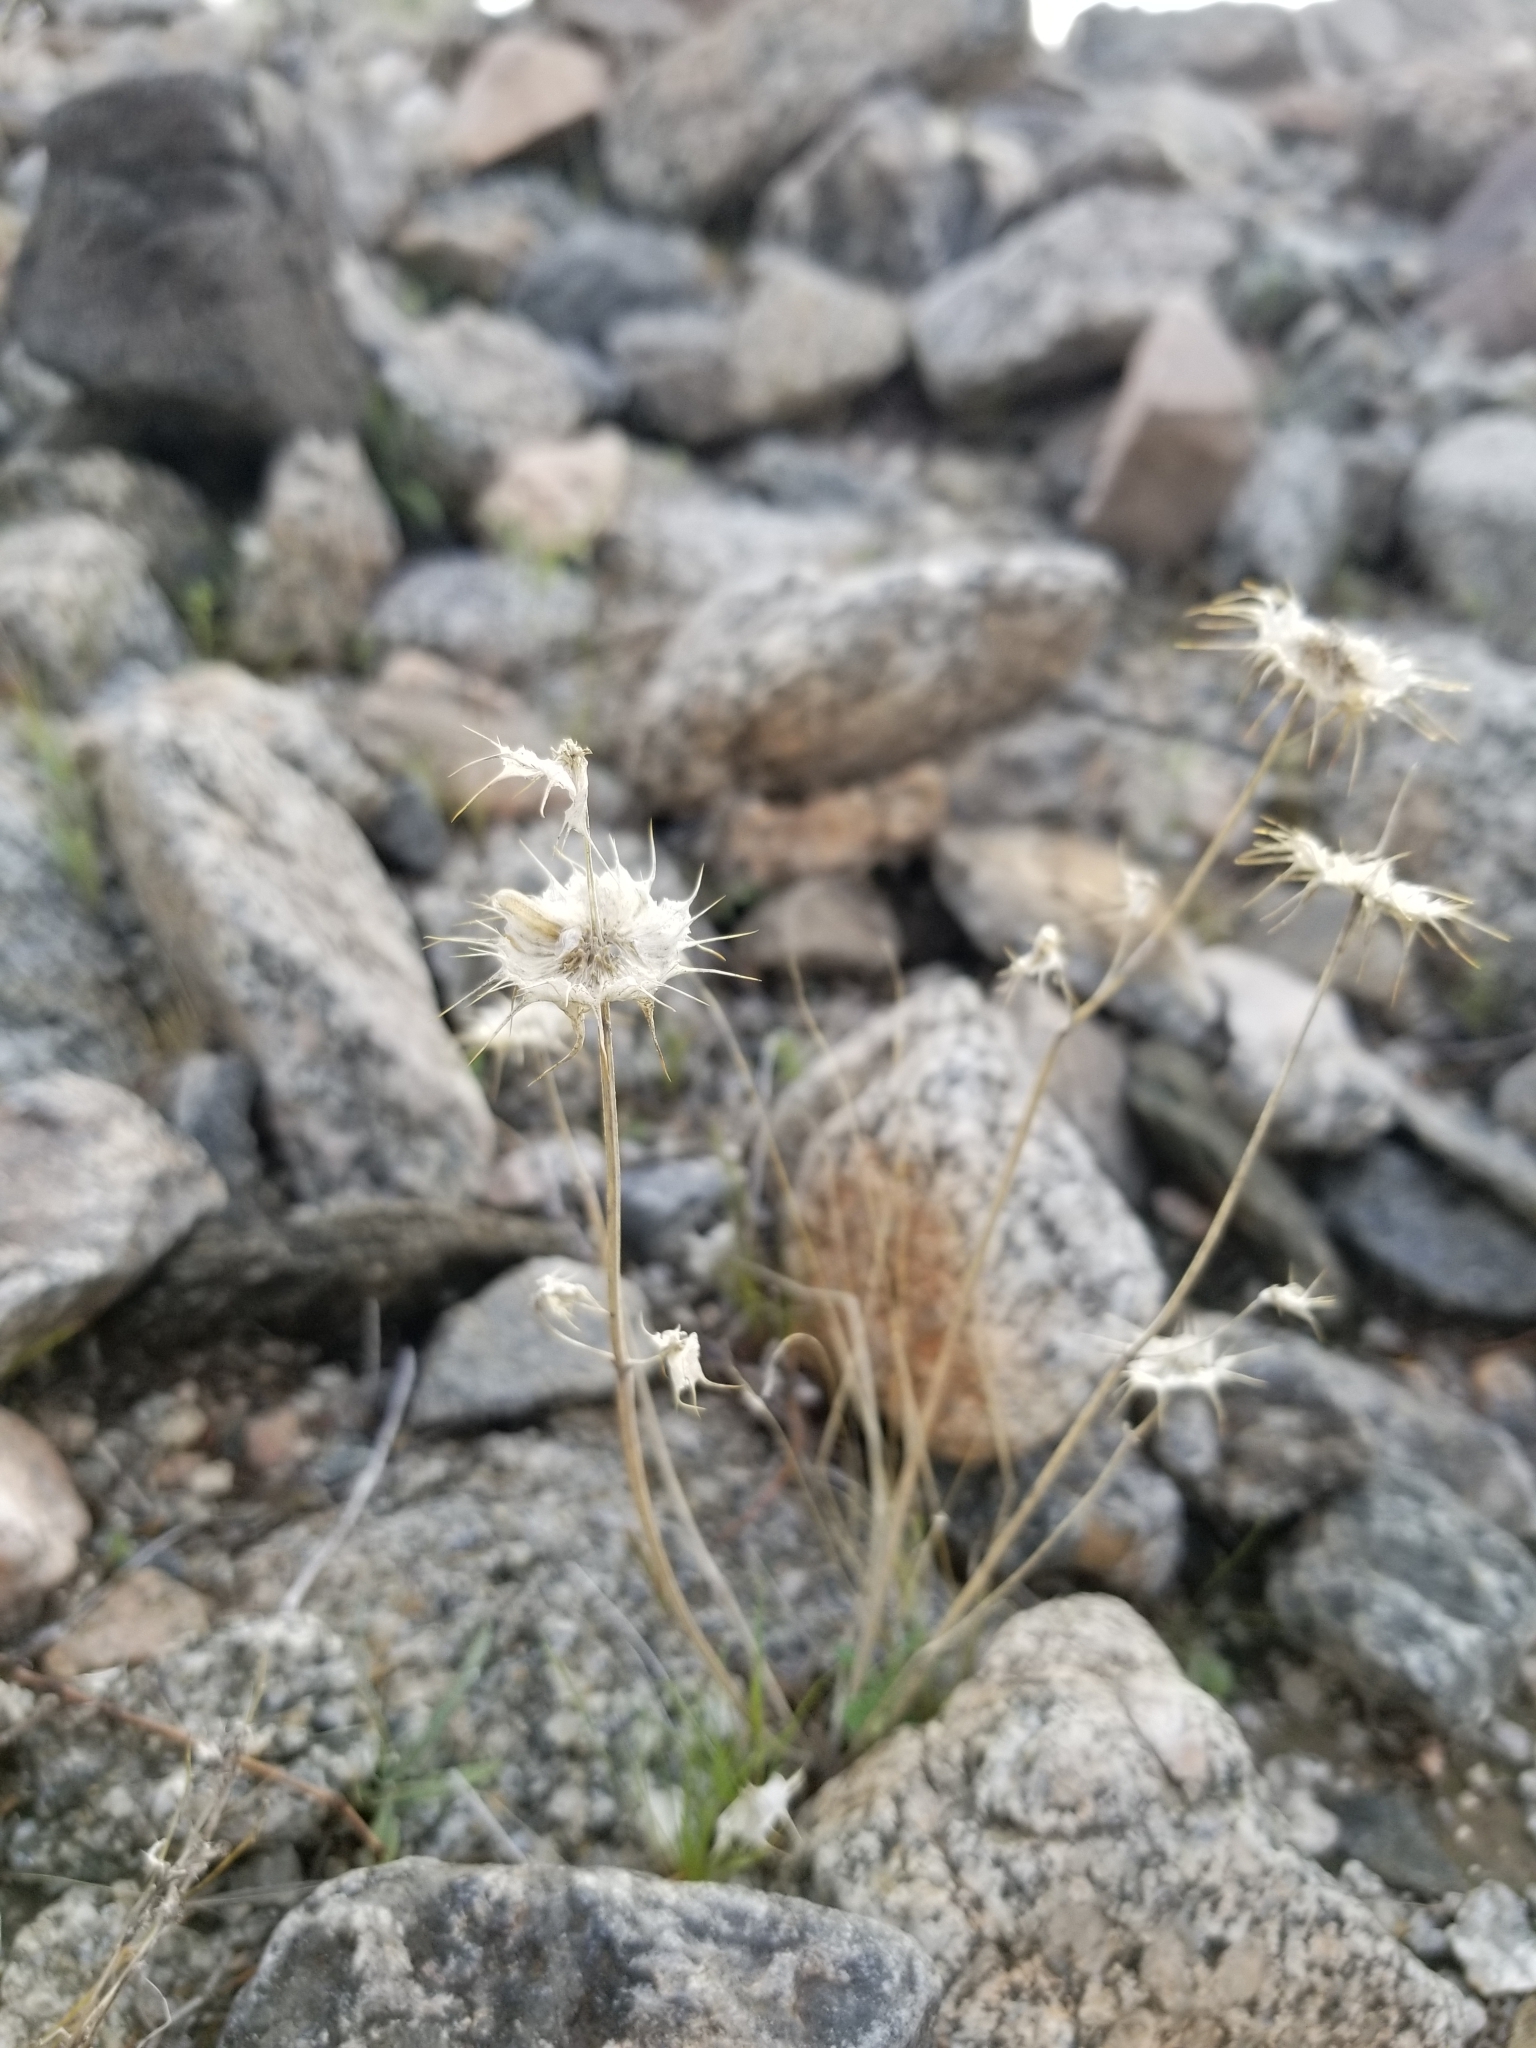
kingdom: Plantae
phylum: Tracheophyta
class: Magnoliopsida
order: Lamiales
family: Lamiaceae
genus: Salvia
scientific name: Salvia columbariae
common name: Chia
